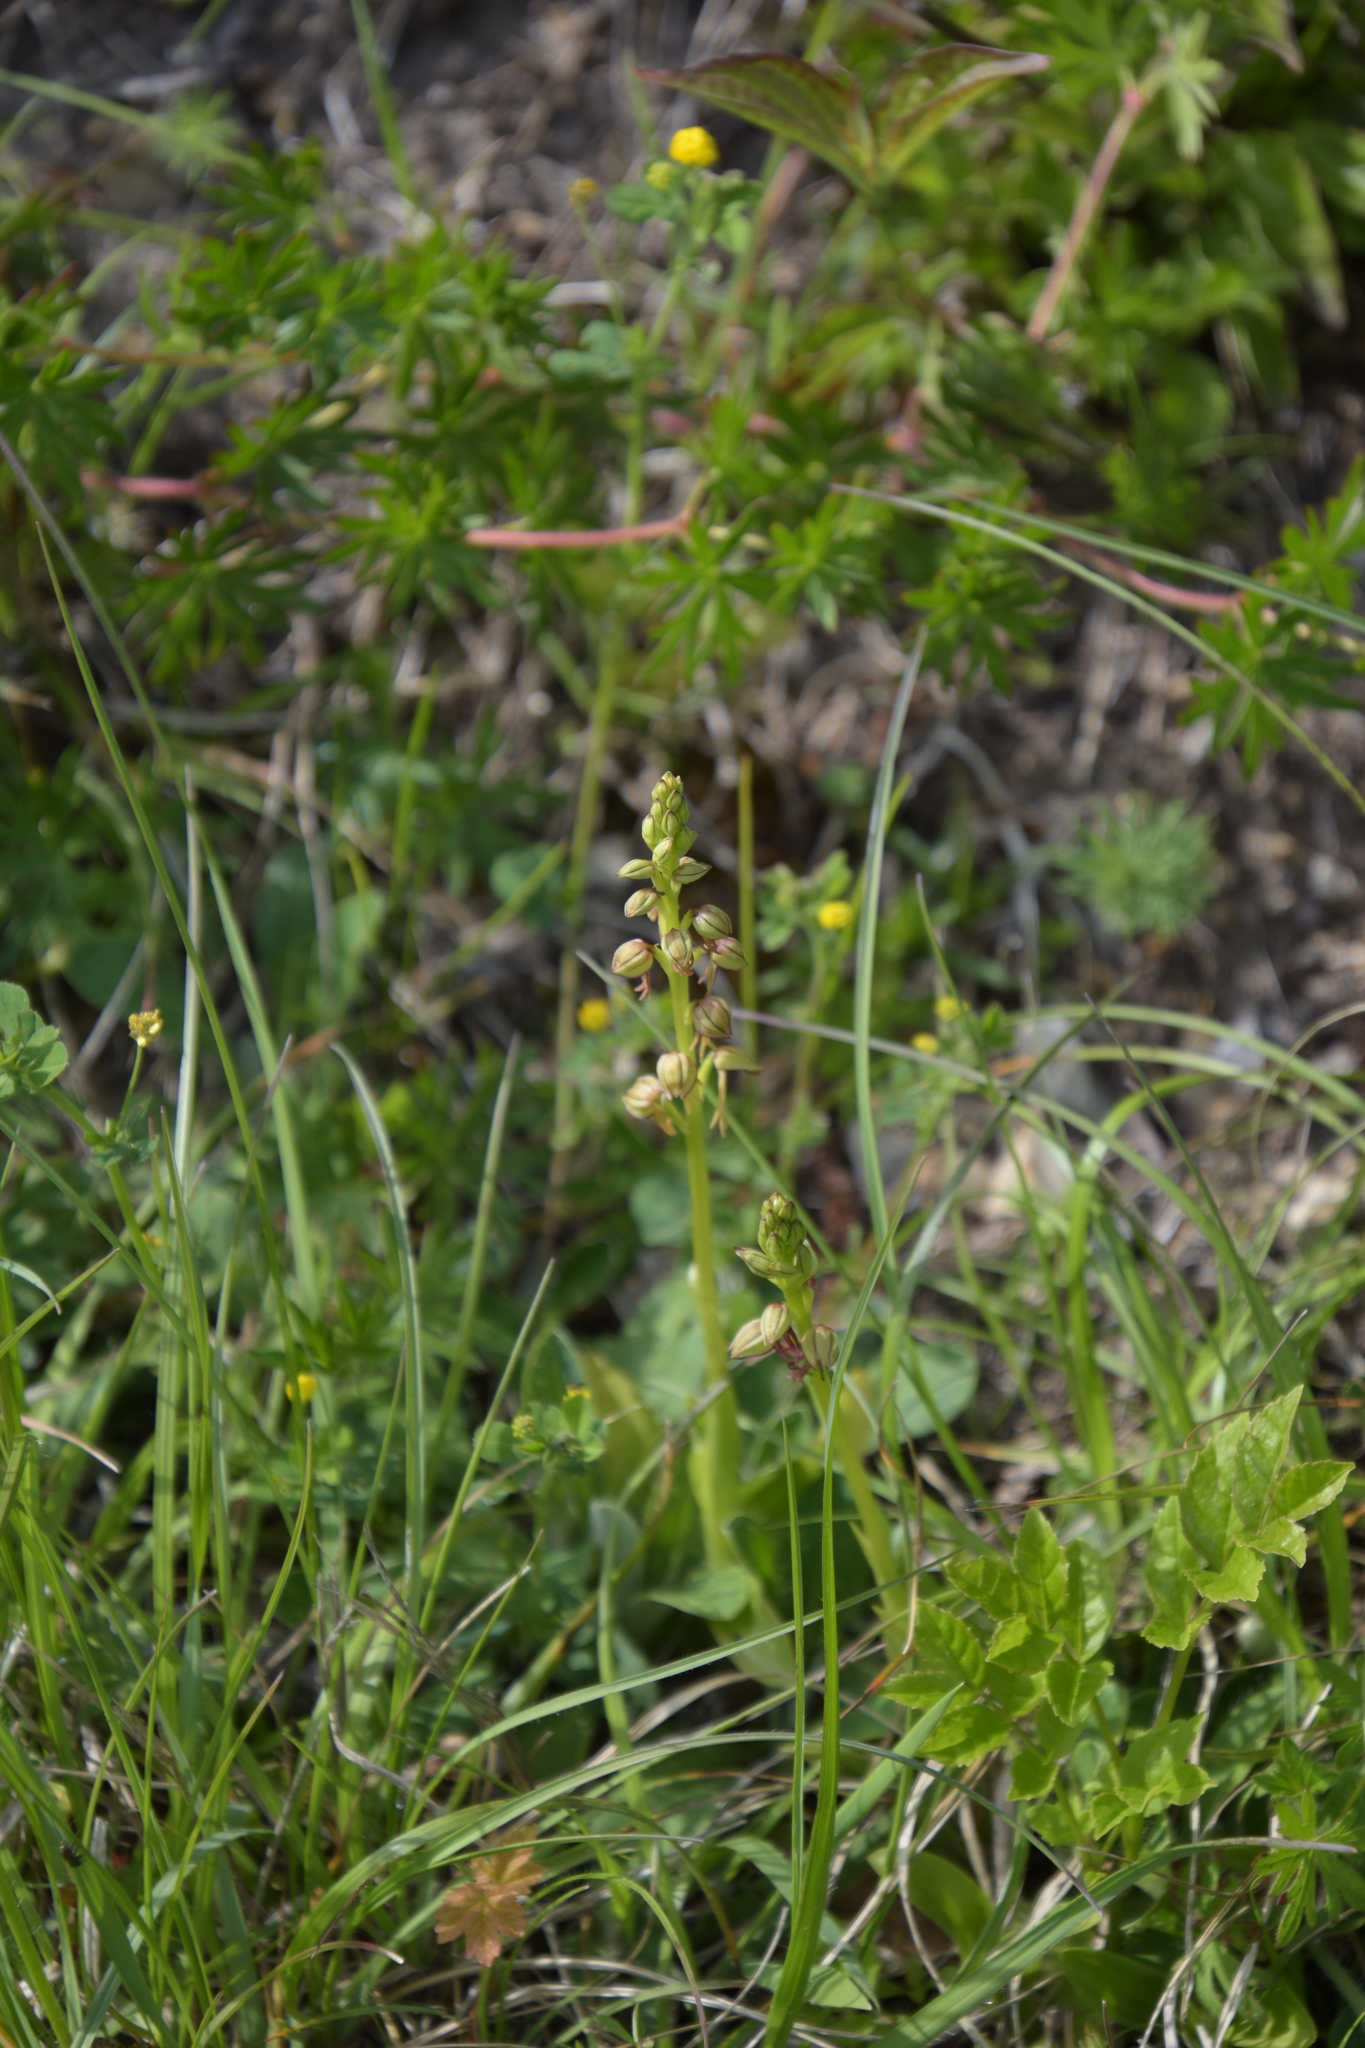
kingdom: Plantae
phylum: Tracheophyta
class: Liliopsida
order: Asparagales
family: Orchidaceae
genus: Orchis
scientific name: Orchis anthropophora
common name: Man orchid
